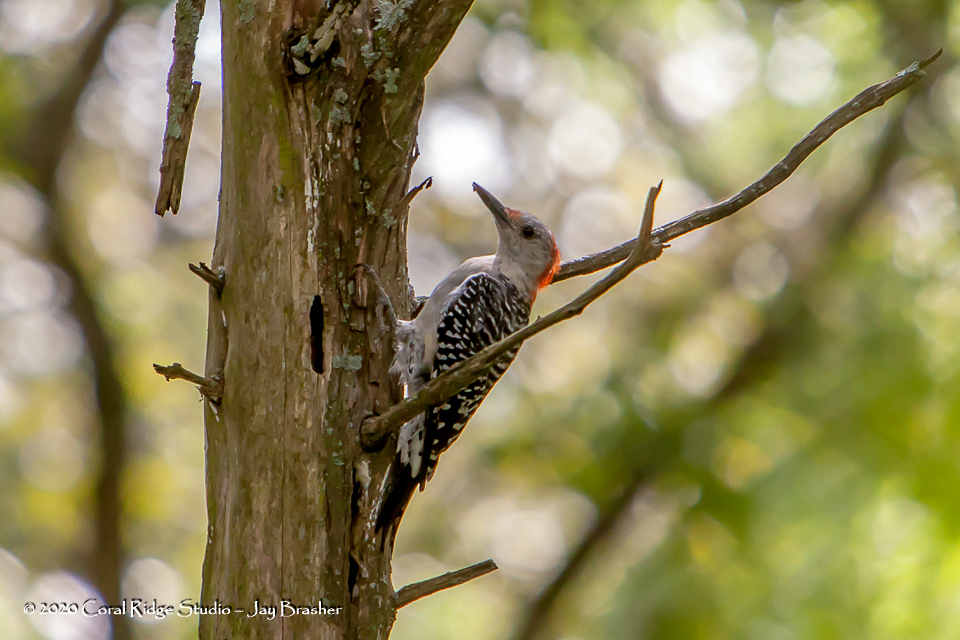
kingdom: Animalia
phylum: Chordata
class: Aves
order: Piciformes
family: Picidae
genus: Melanerpes
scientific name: Melanerpes carolinus
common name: Red-bellied woodpecker
